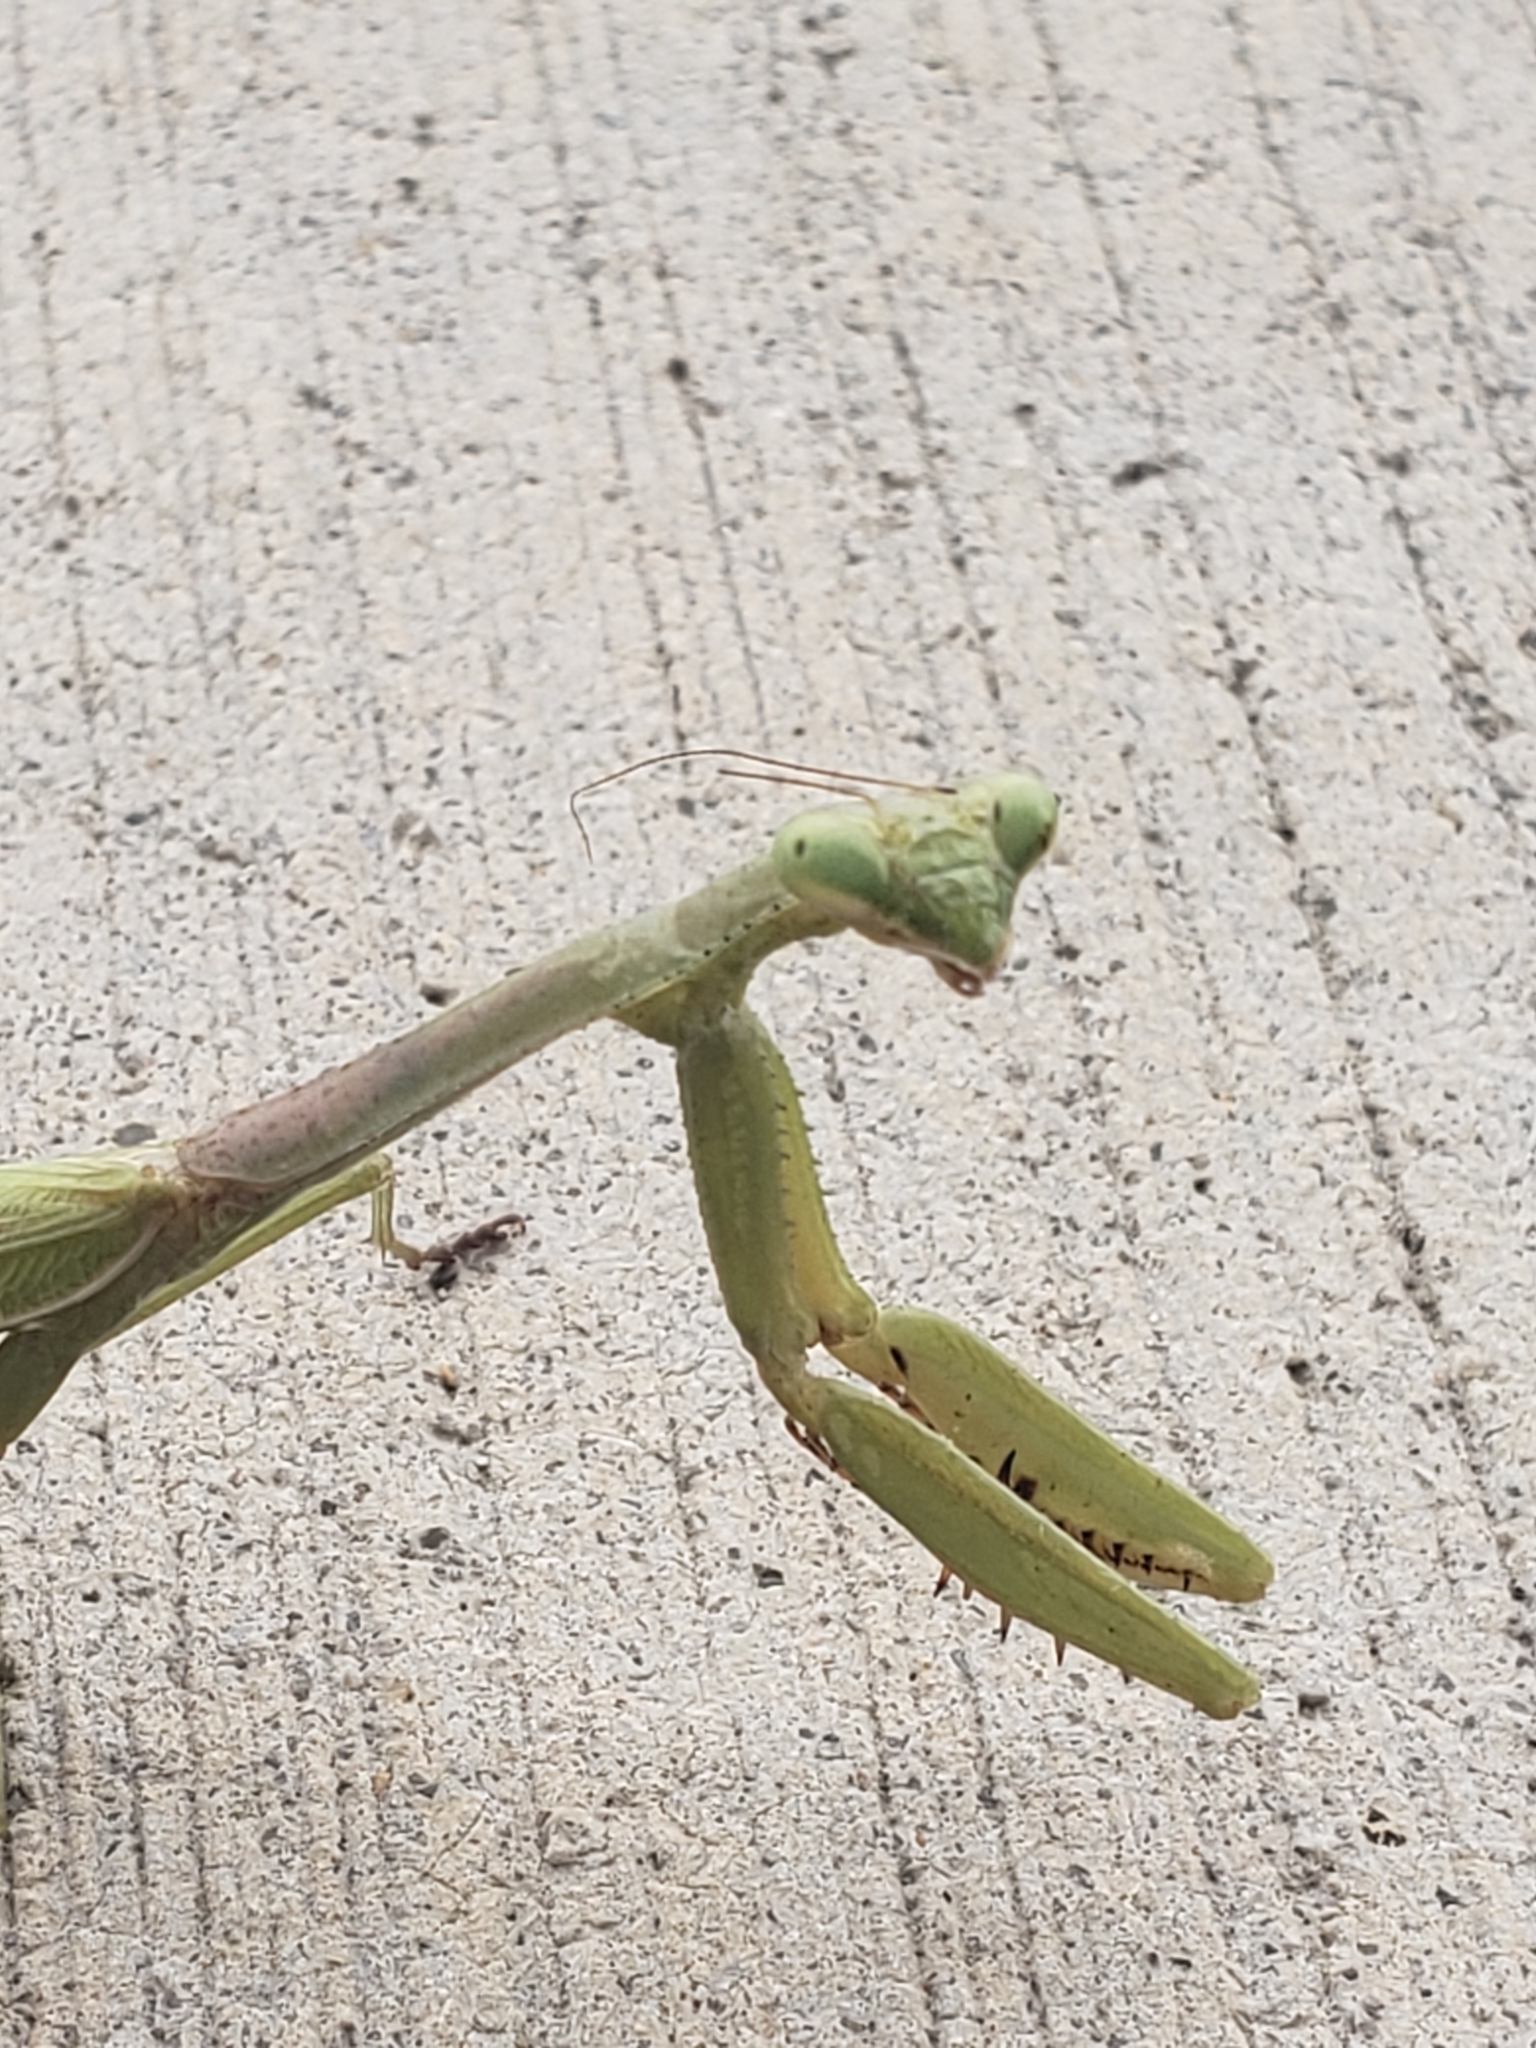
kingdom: Animalia
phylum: Arthropoda
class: Insecta
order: Mantodea
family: Mantidae
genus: Stagmomantis
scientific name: Stagmomantis carolina
